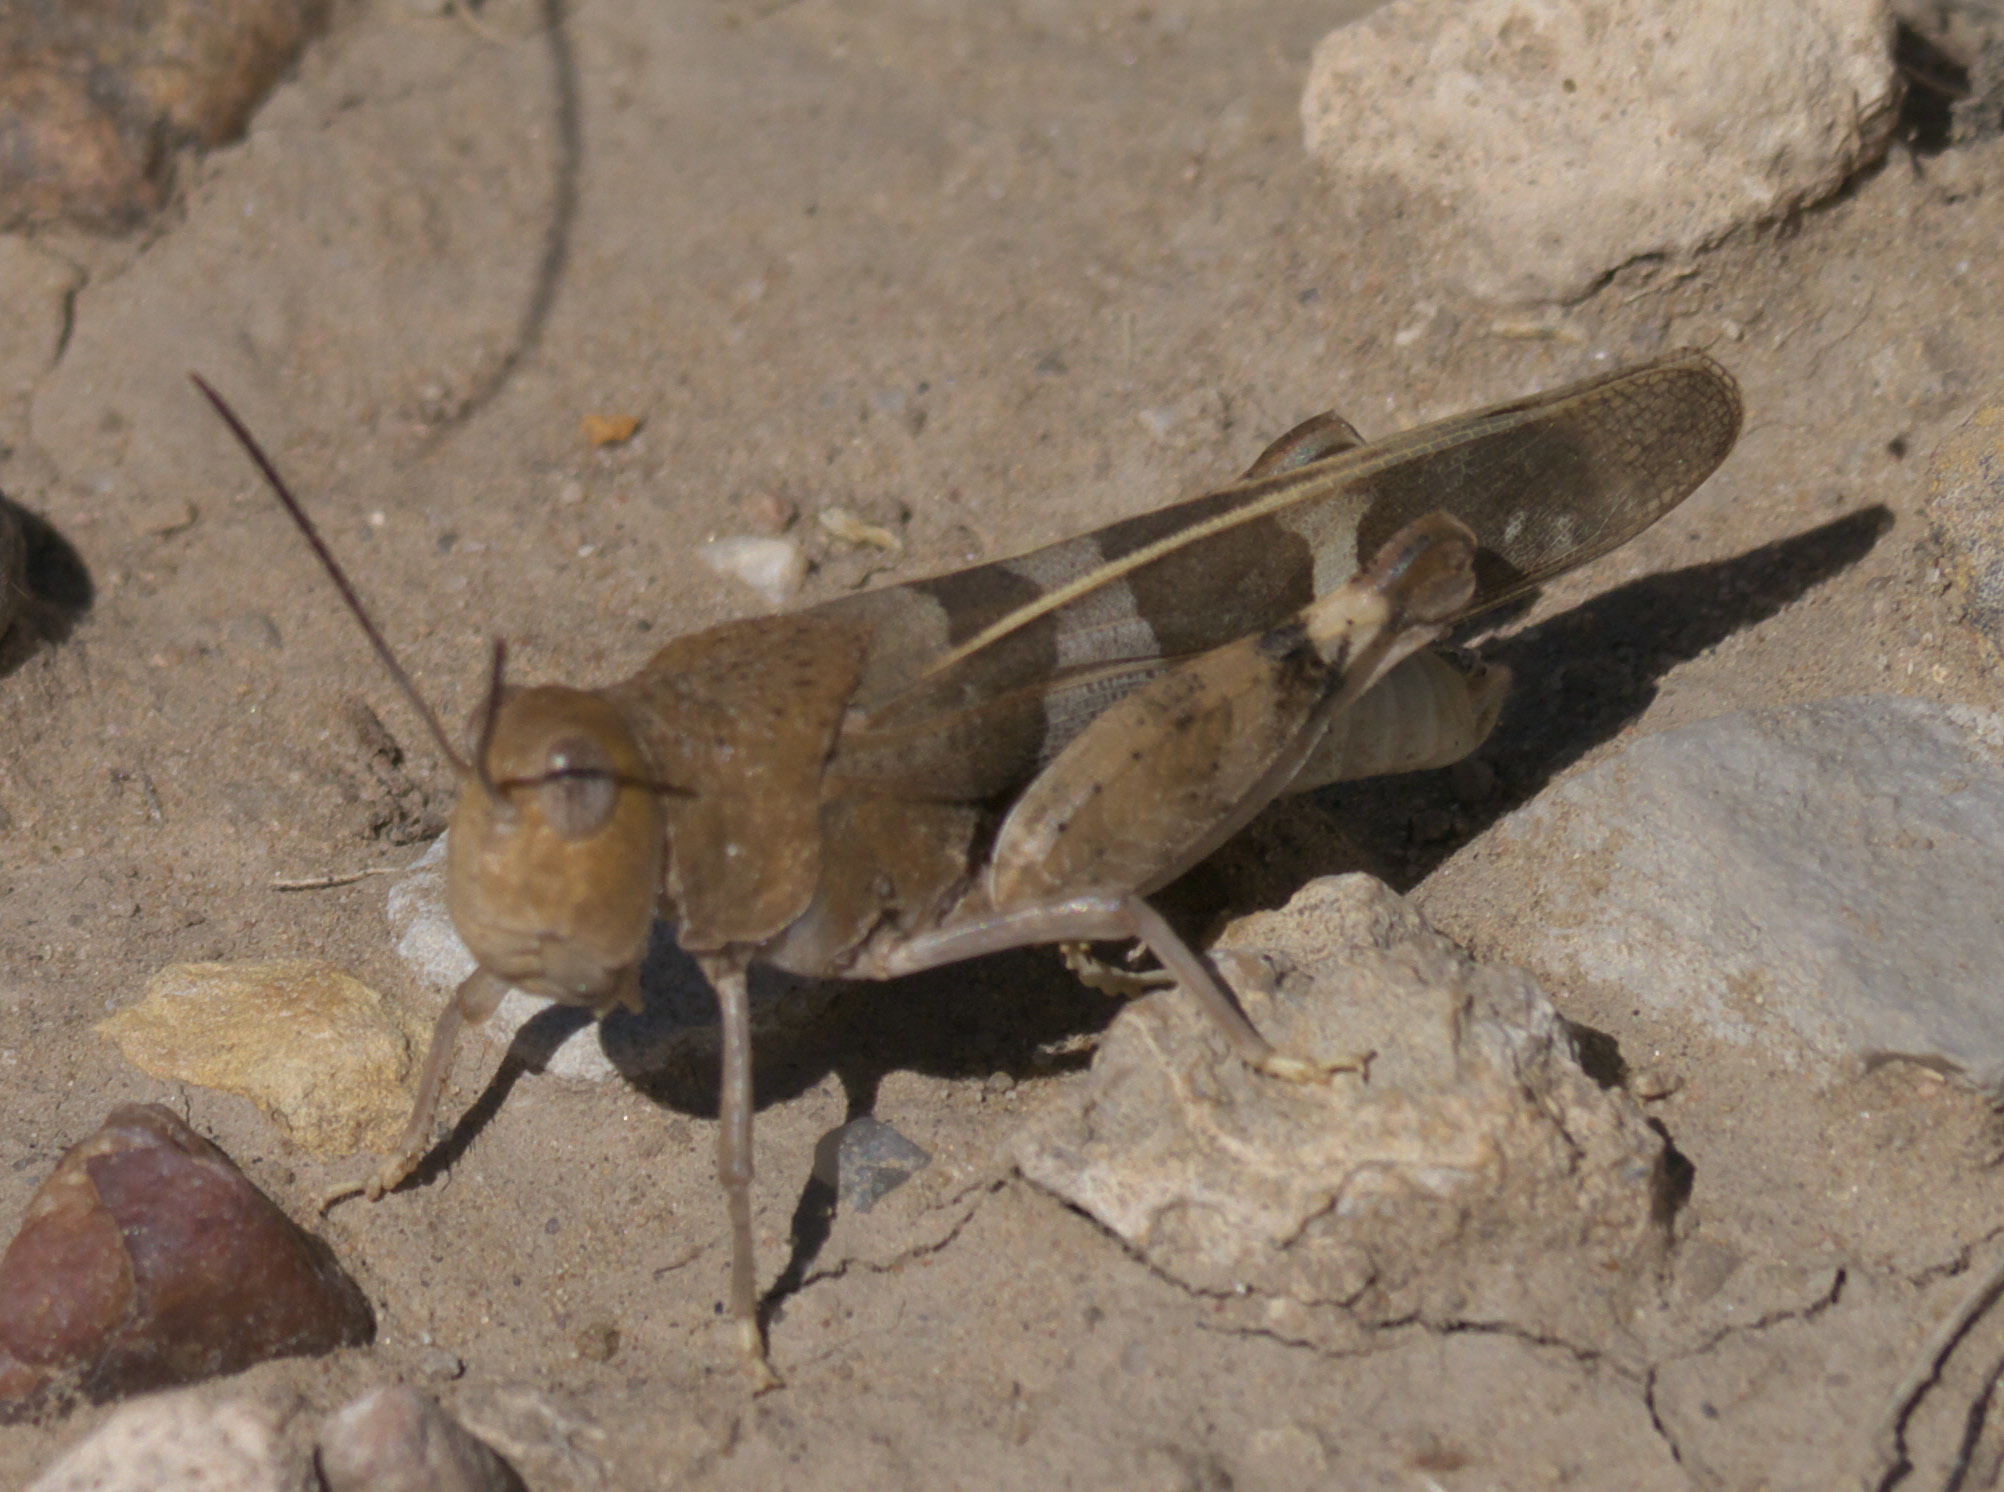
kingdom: Animalia
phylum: Arthropoda
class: Insecta
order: Orthoptera
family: Acrididae
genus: Leprus
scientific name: Leprus wheelerii
